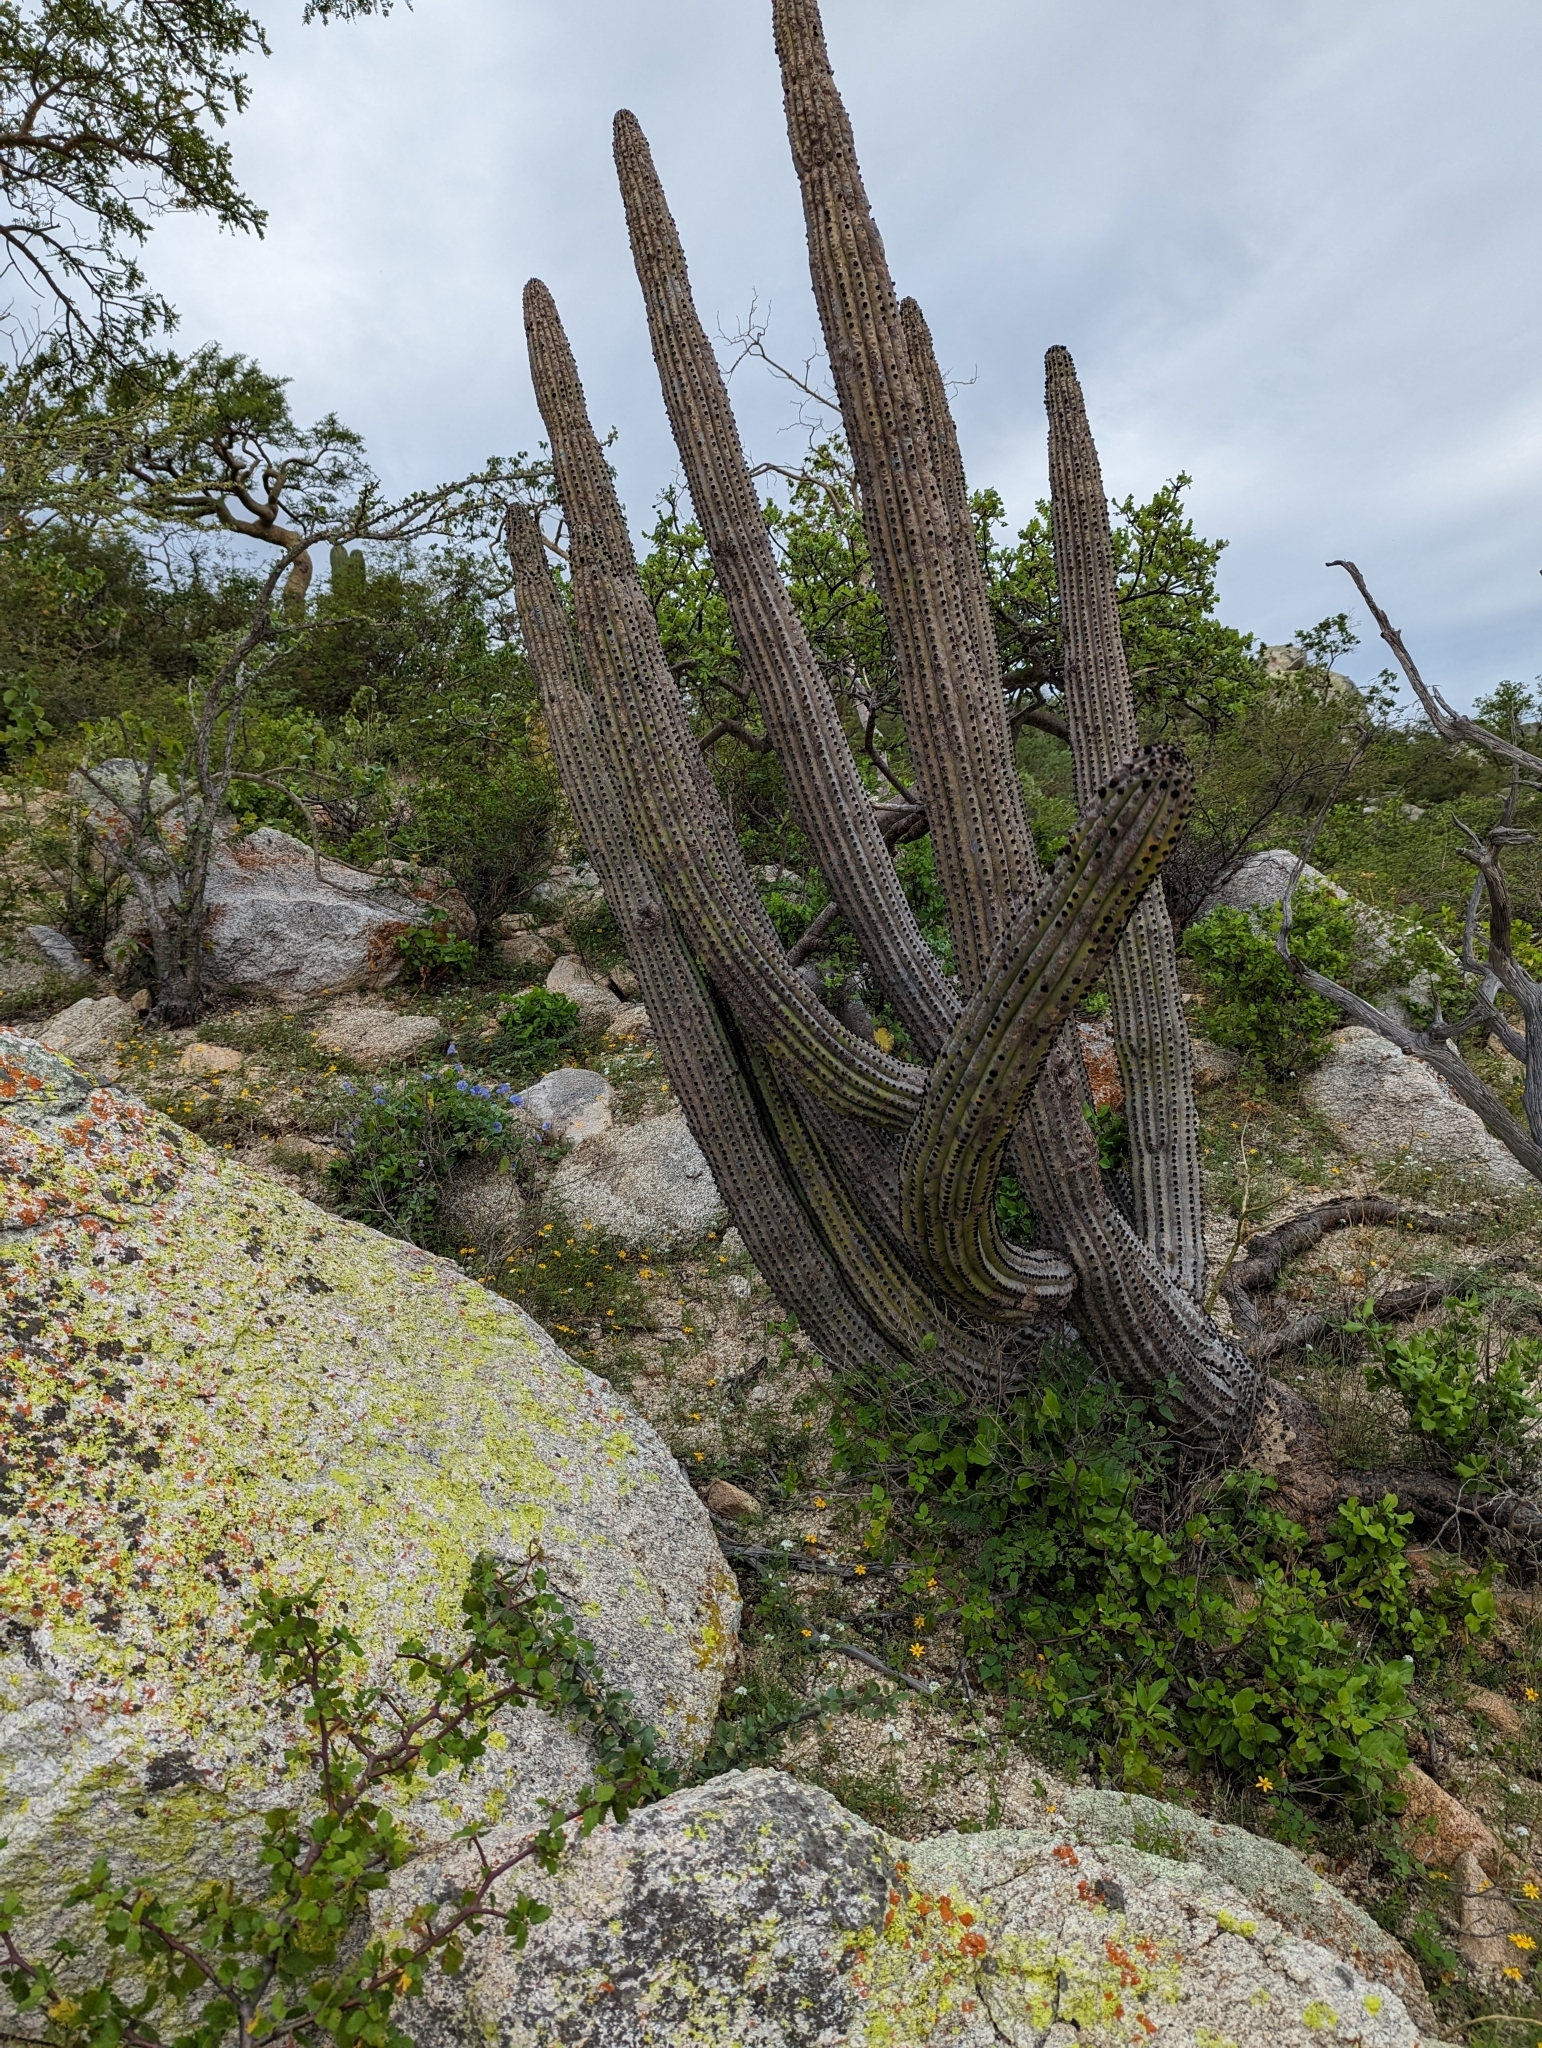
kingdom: Plantae
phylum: Tracheophyta
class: Magnoliopsida
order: Caryophyllales
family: Cactaceae
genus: Stenocereus
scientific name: Stenocereus thurberi
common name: Organ pipe cactus
